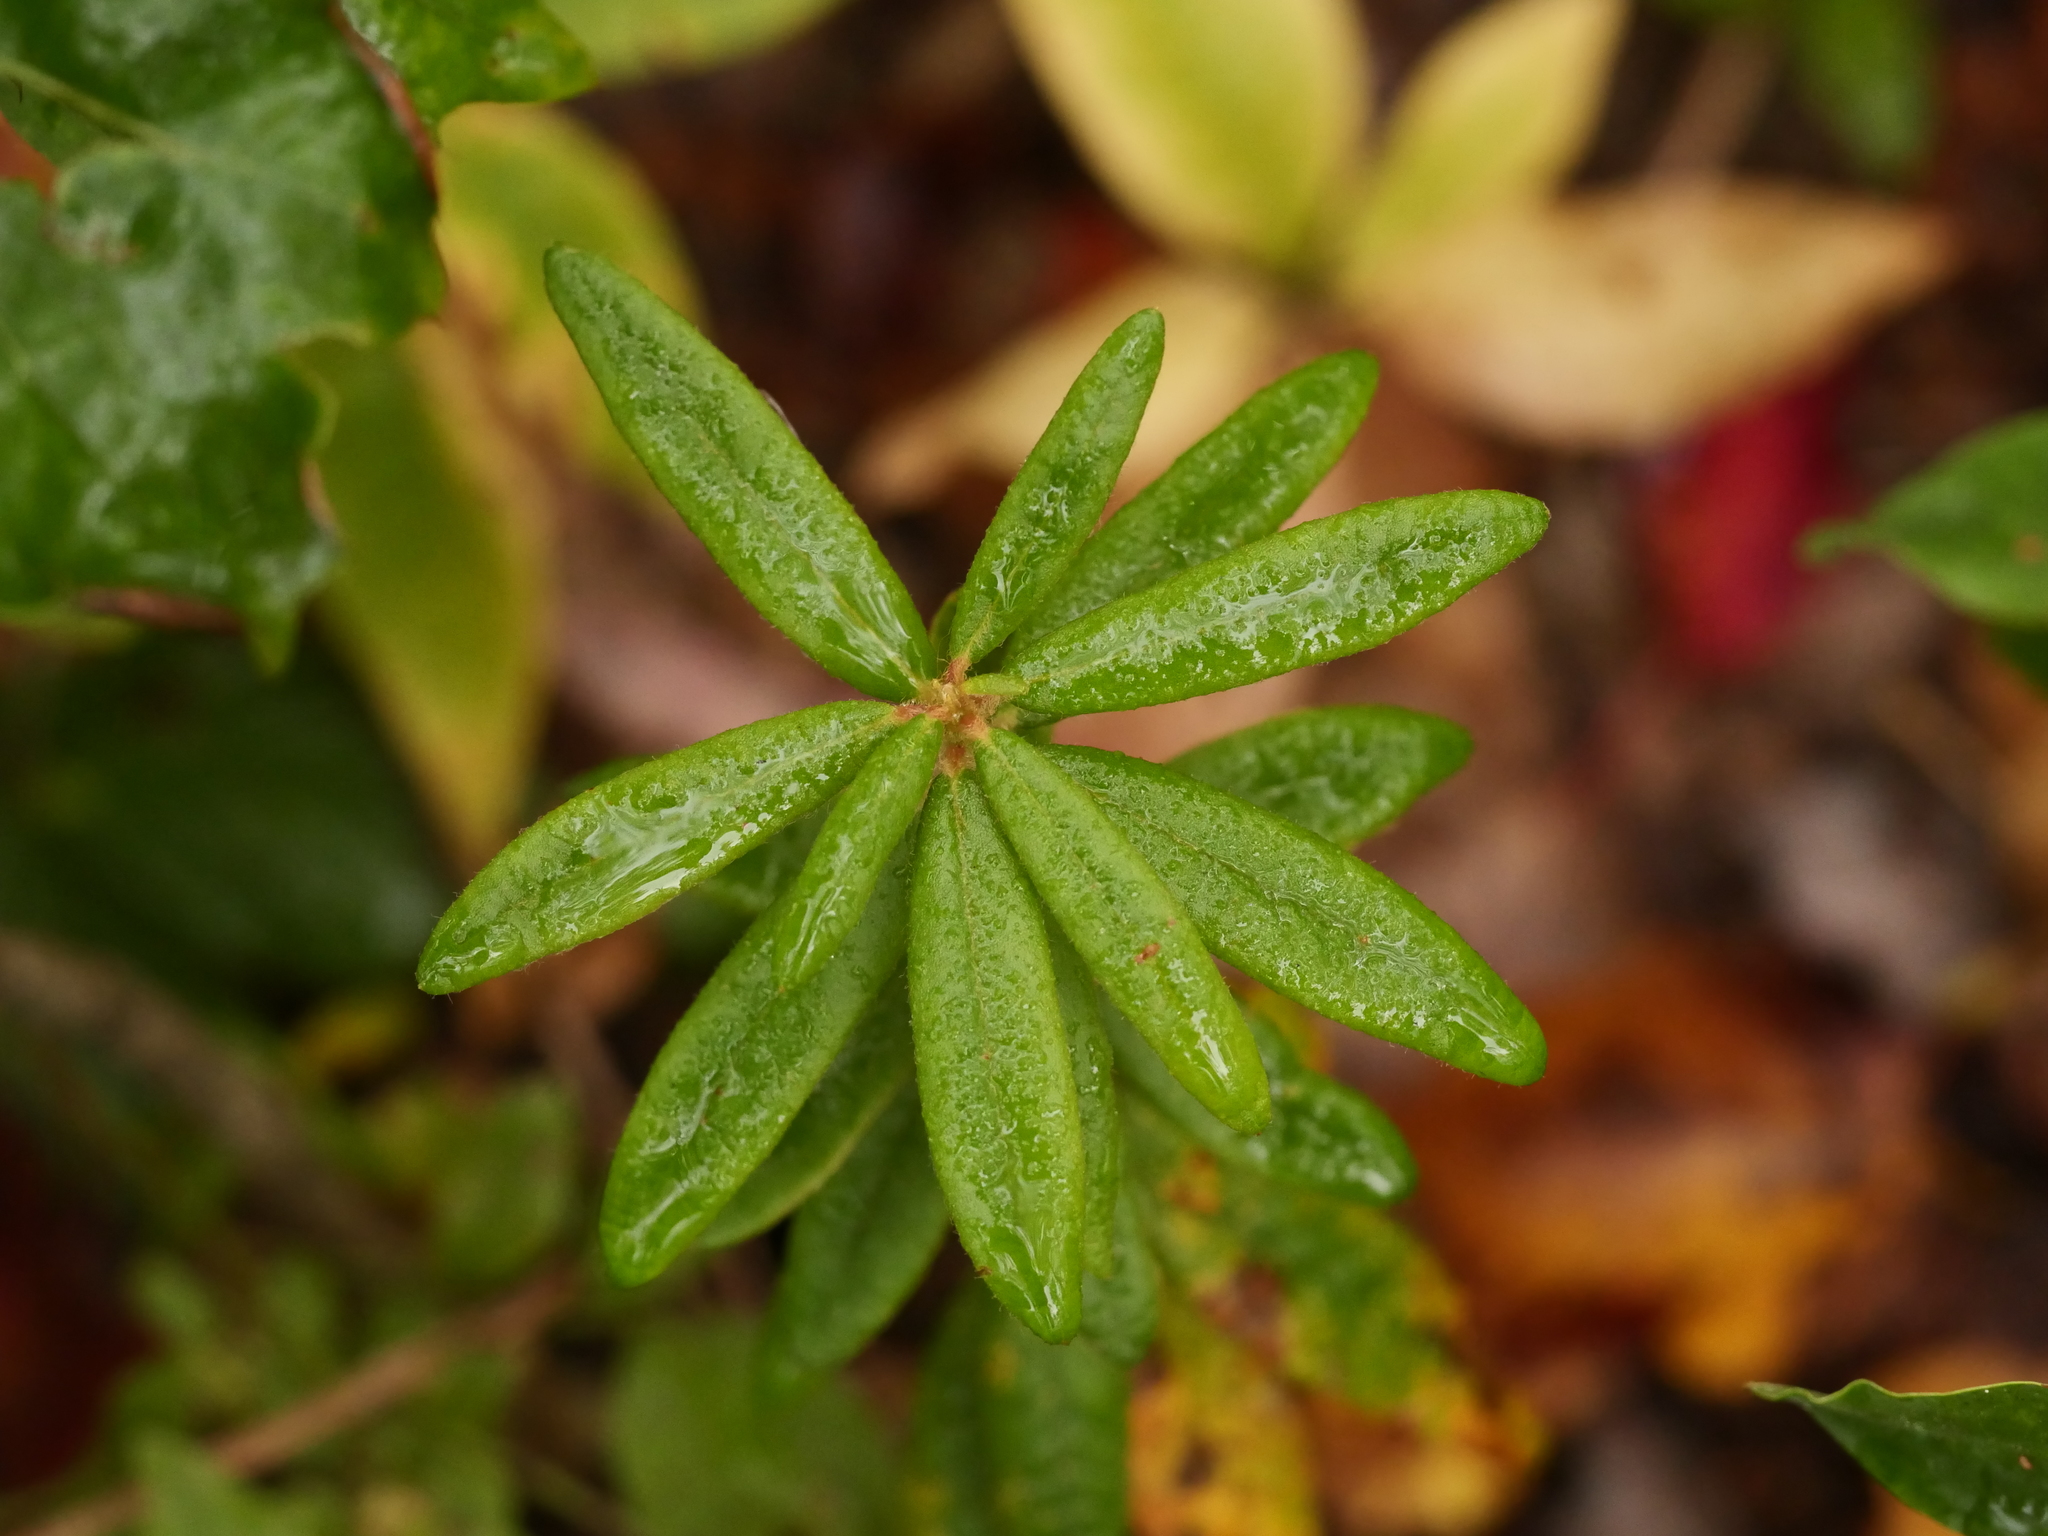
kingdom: Plantae
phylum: Tracheophyta
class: Magnoliopsida
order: Ericales
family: Ericaceae
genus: Rhododendron
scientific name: Rhododendron groenlandicum
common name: Bog labrador tea
